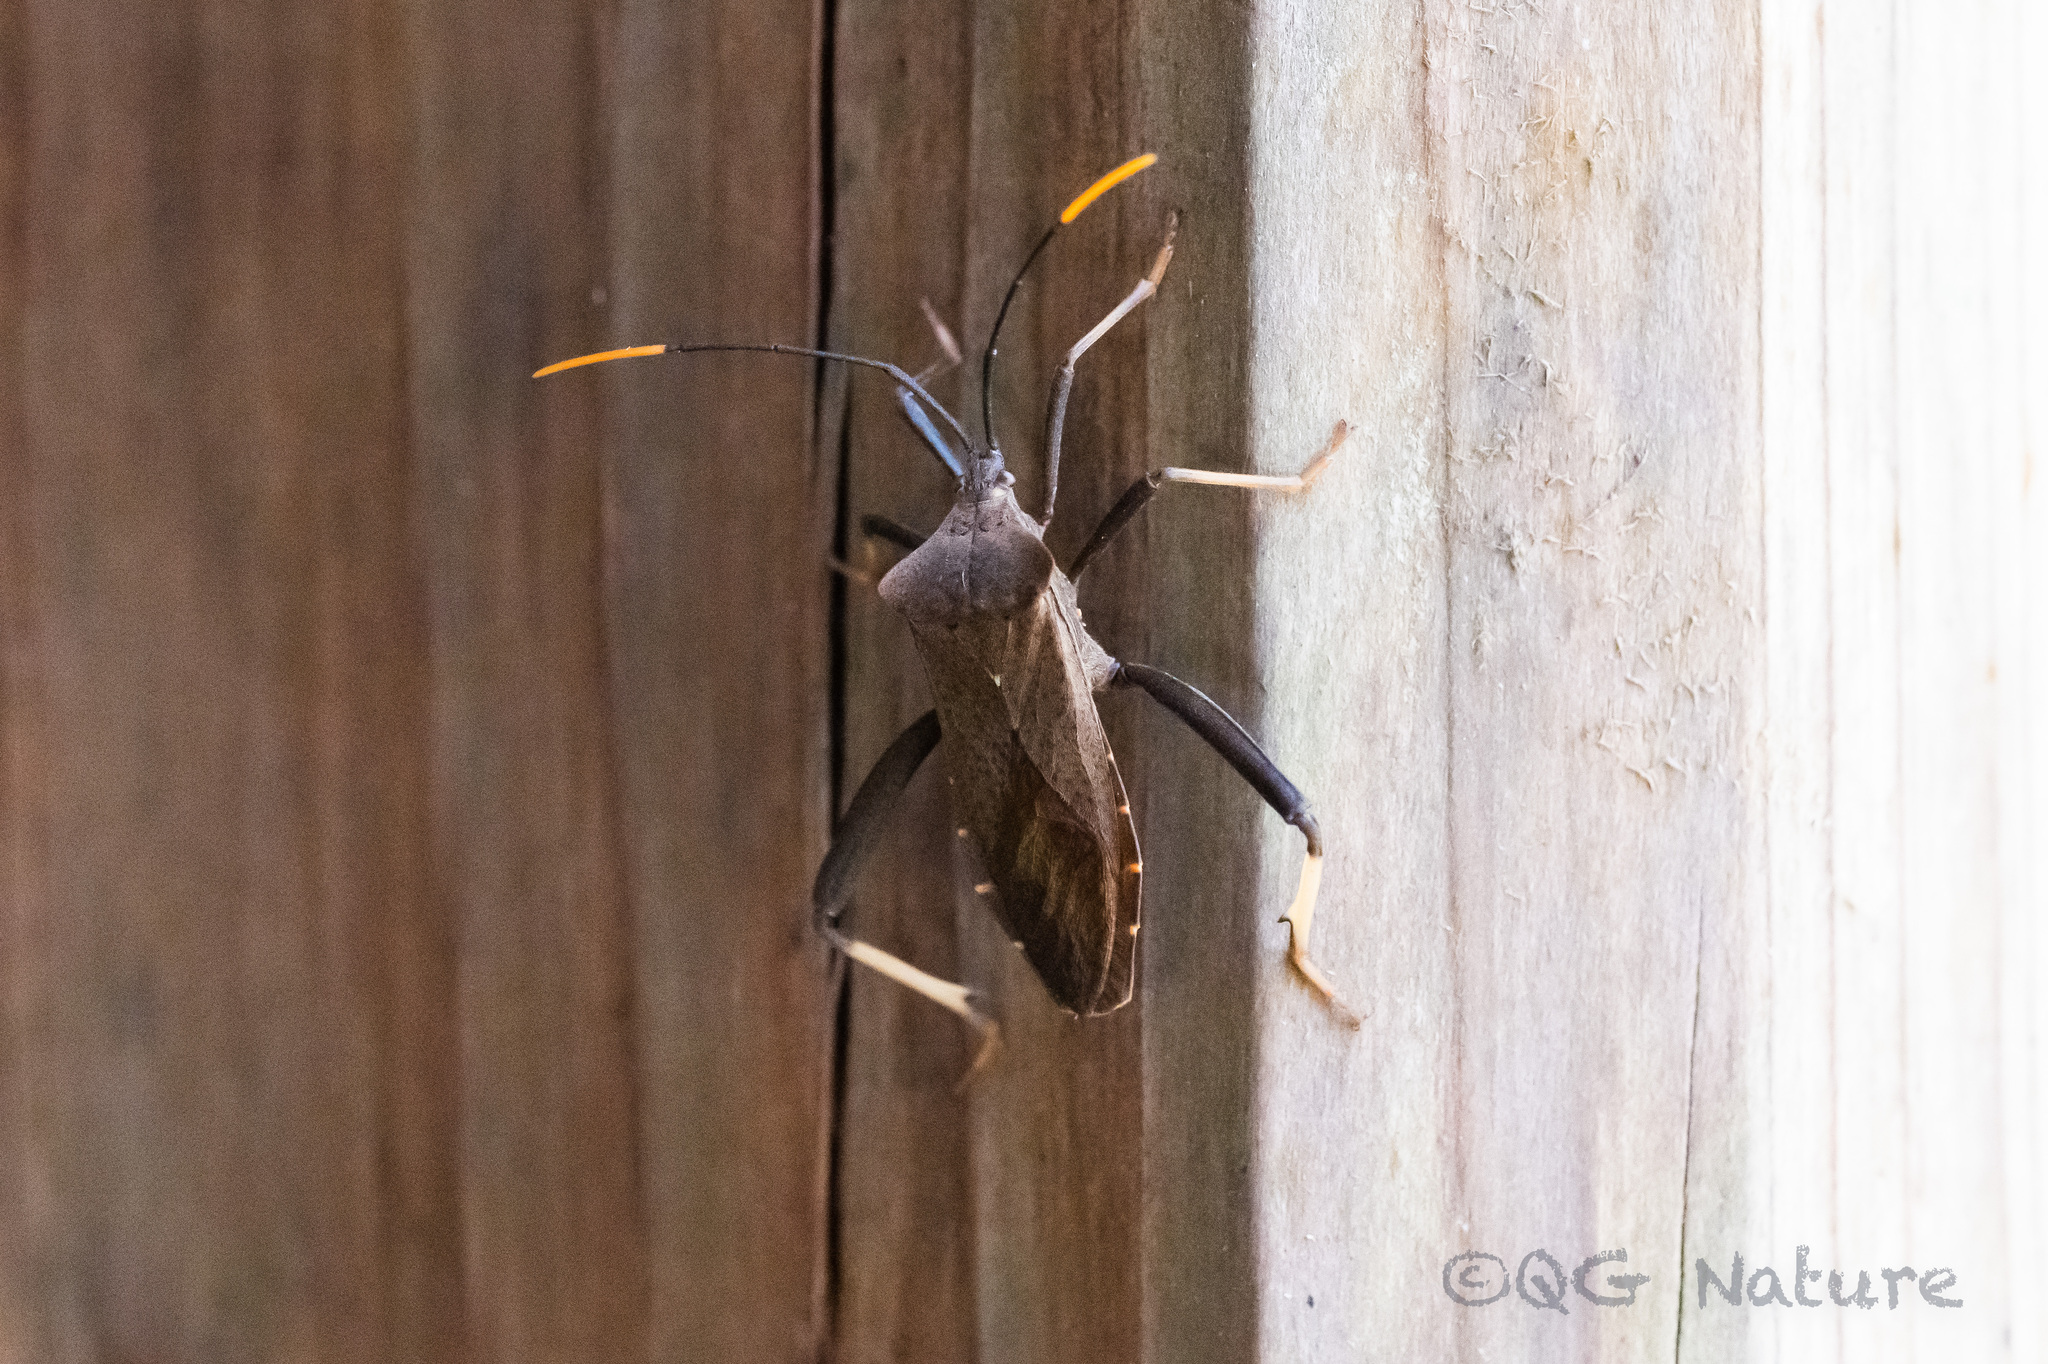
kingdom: Animalia
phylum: Arthropoda
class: Insecta
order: Hemiptera
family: Coreidae
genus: Mictis
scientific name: Mictis serina
